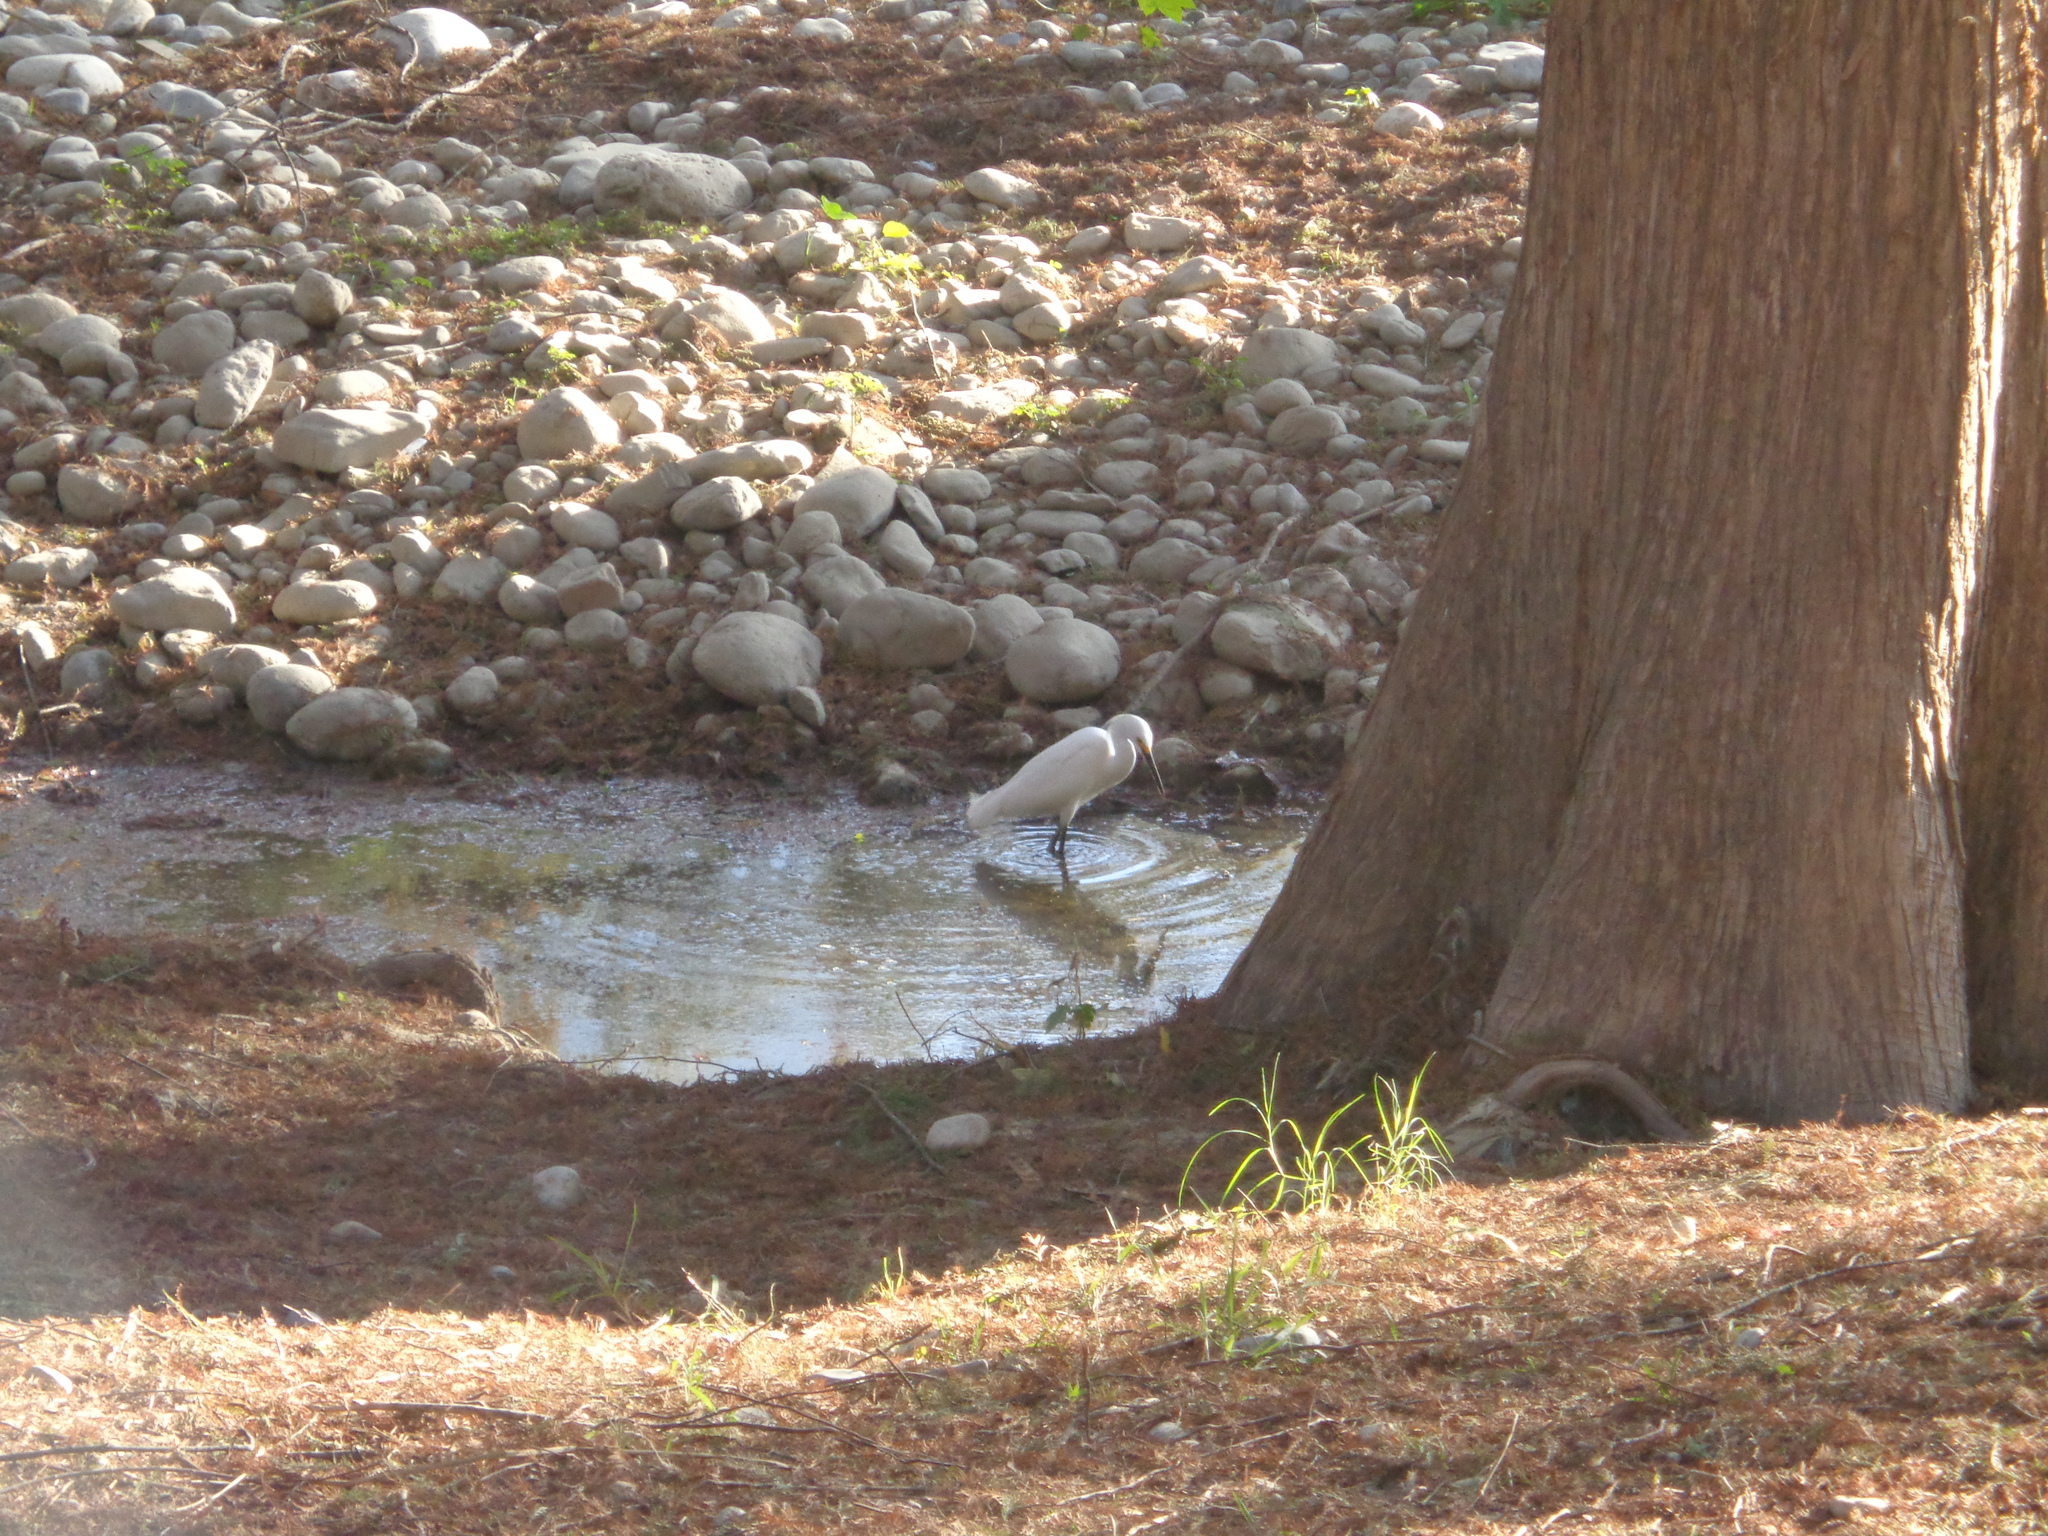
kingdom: Animalia
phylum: Chordata
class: Aves
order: Pelecaniformes
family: Ardeidae
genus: Egretta
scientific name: Egretta thula
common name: Snowy egret
